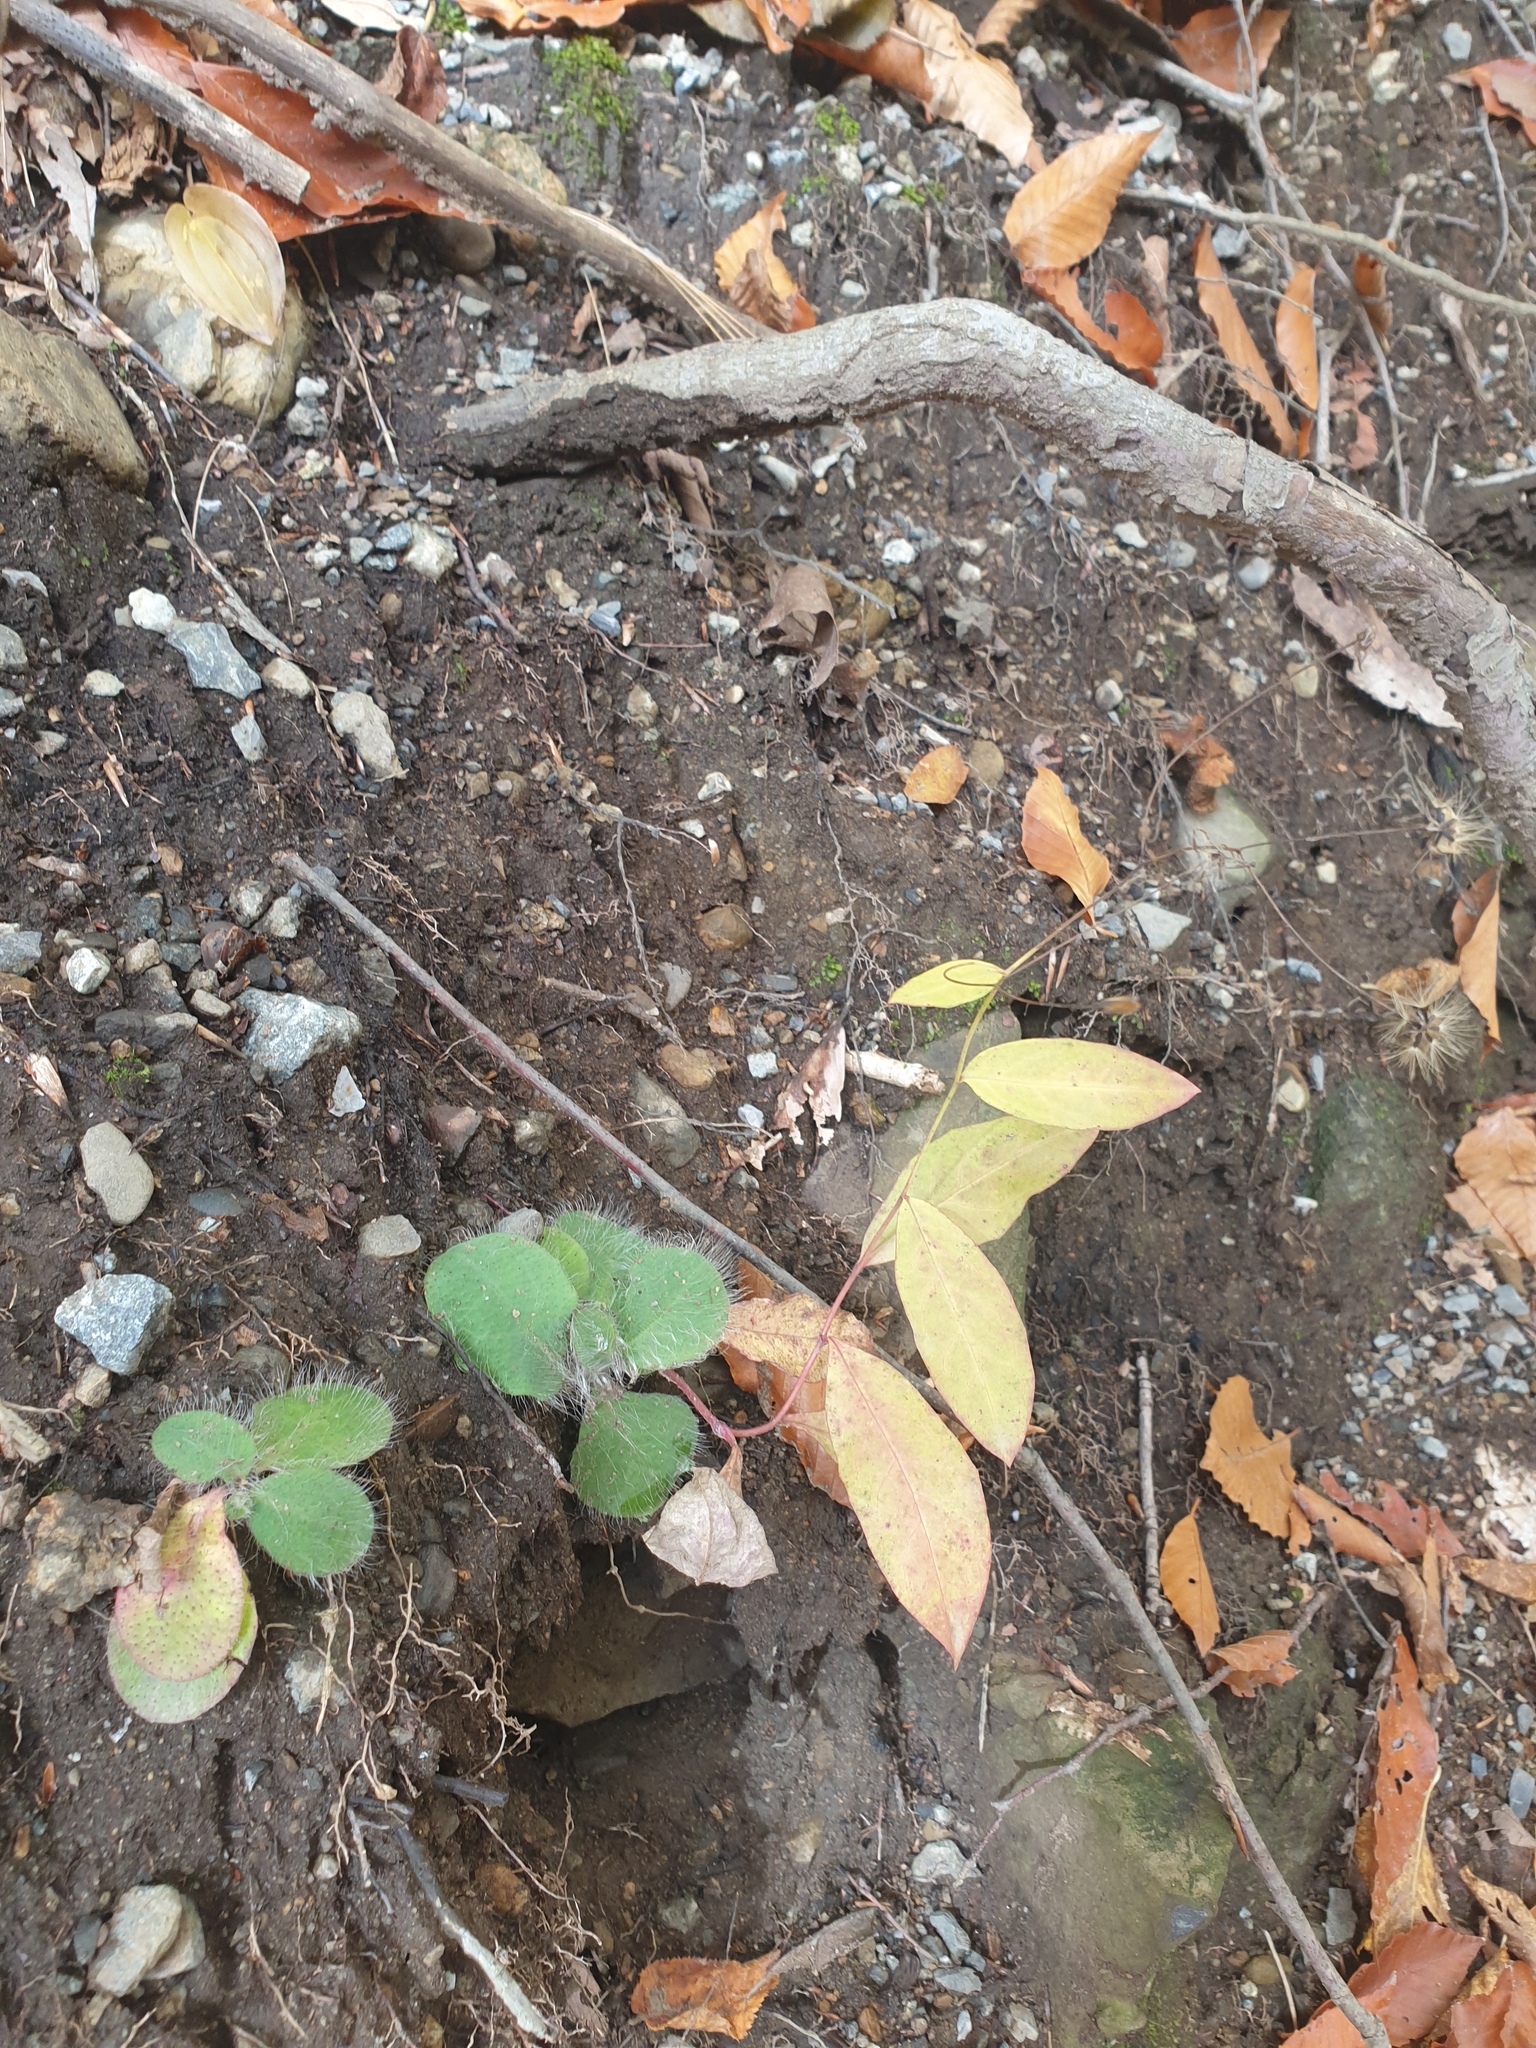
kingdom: Plantae
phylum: Tracheophyta
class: Magnoliopsida
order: Asterales
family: Asteraceae
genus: Hieracium
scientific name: Hieracium paniculatum
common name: Allegheny hawkweed
